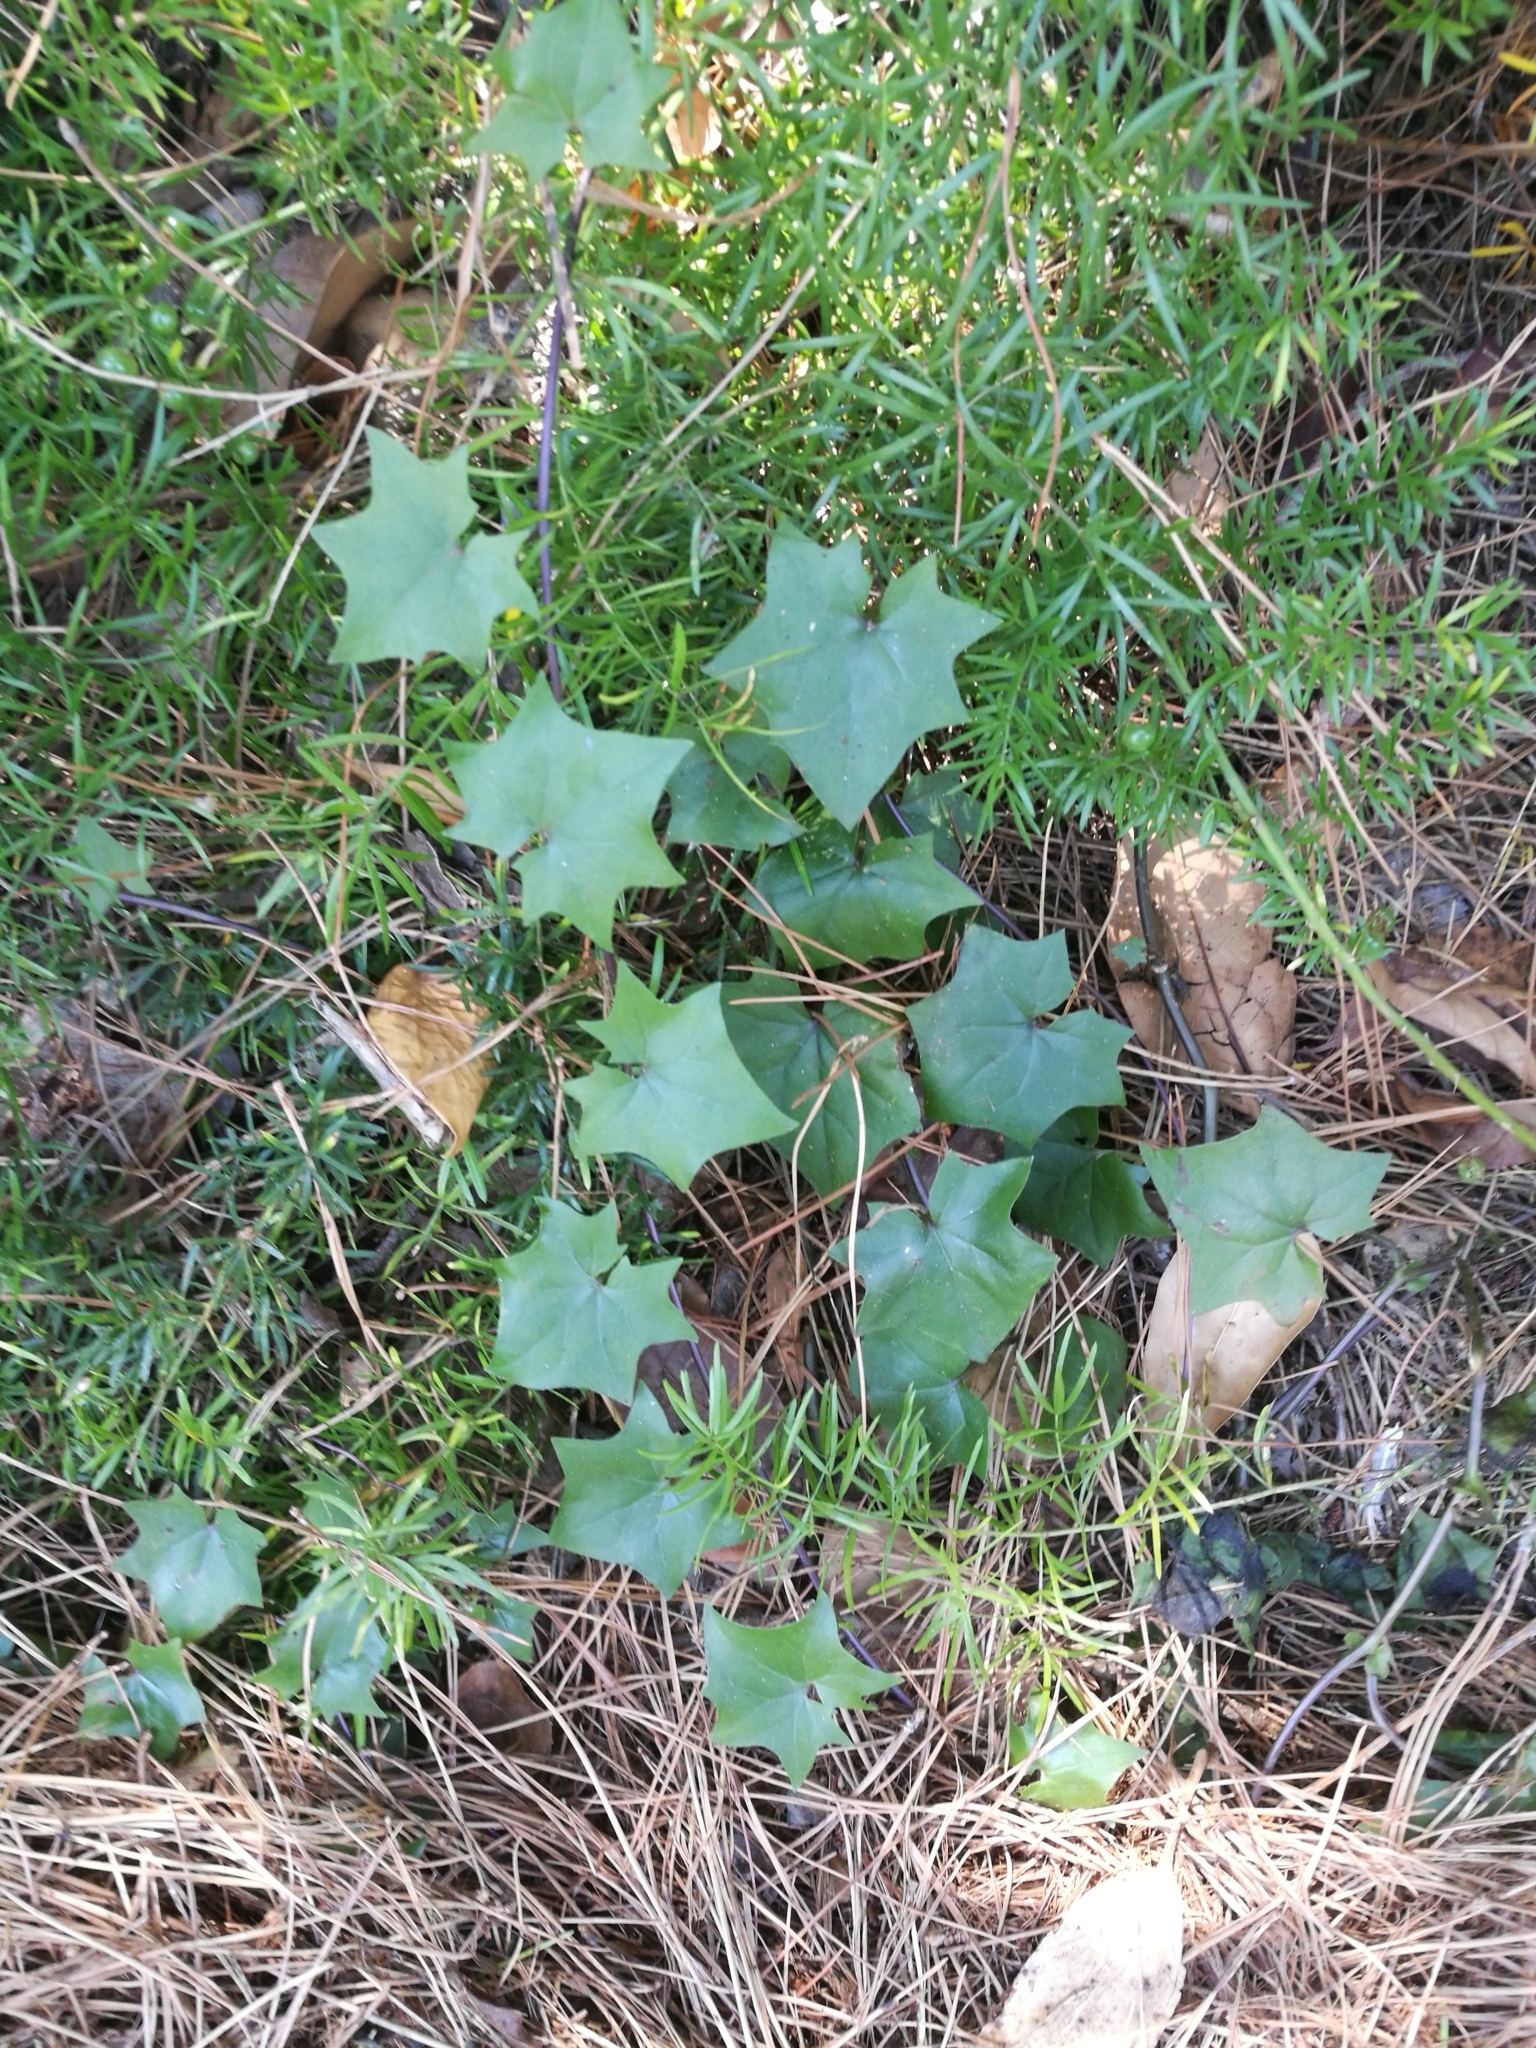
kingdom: Plantae
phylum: Tracheophyta
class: Magnoliopsida
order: Asterales
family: Asteraceae
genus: Delairea
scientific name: Delairea odorata
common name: Cape-ivy
